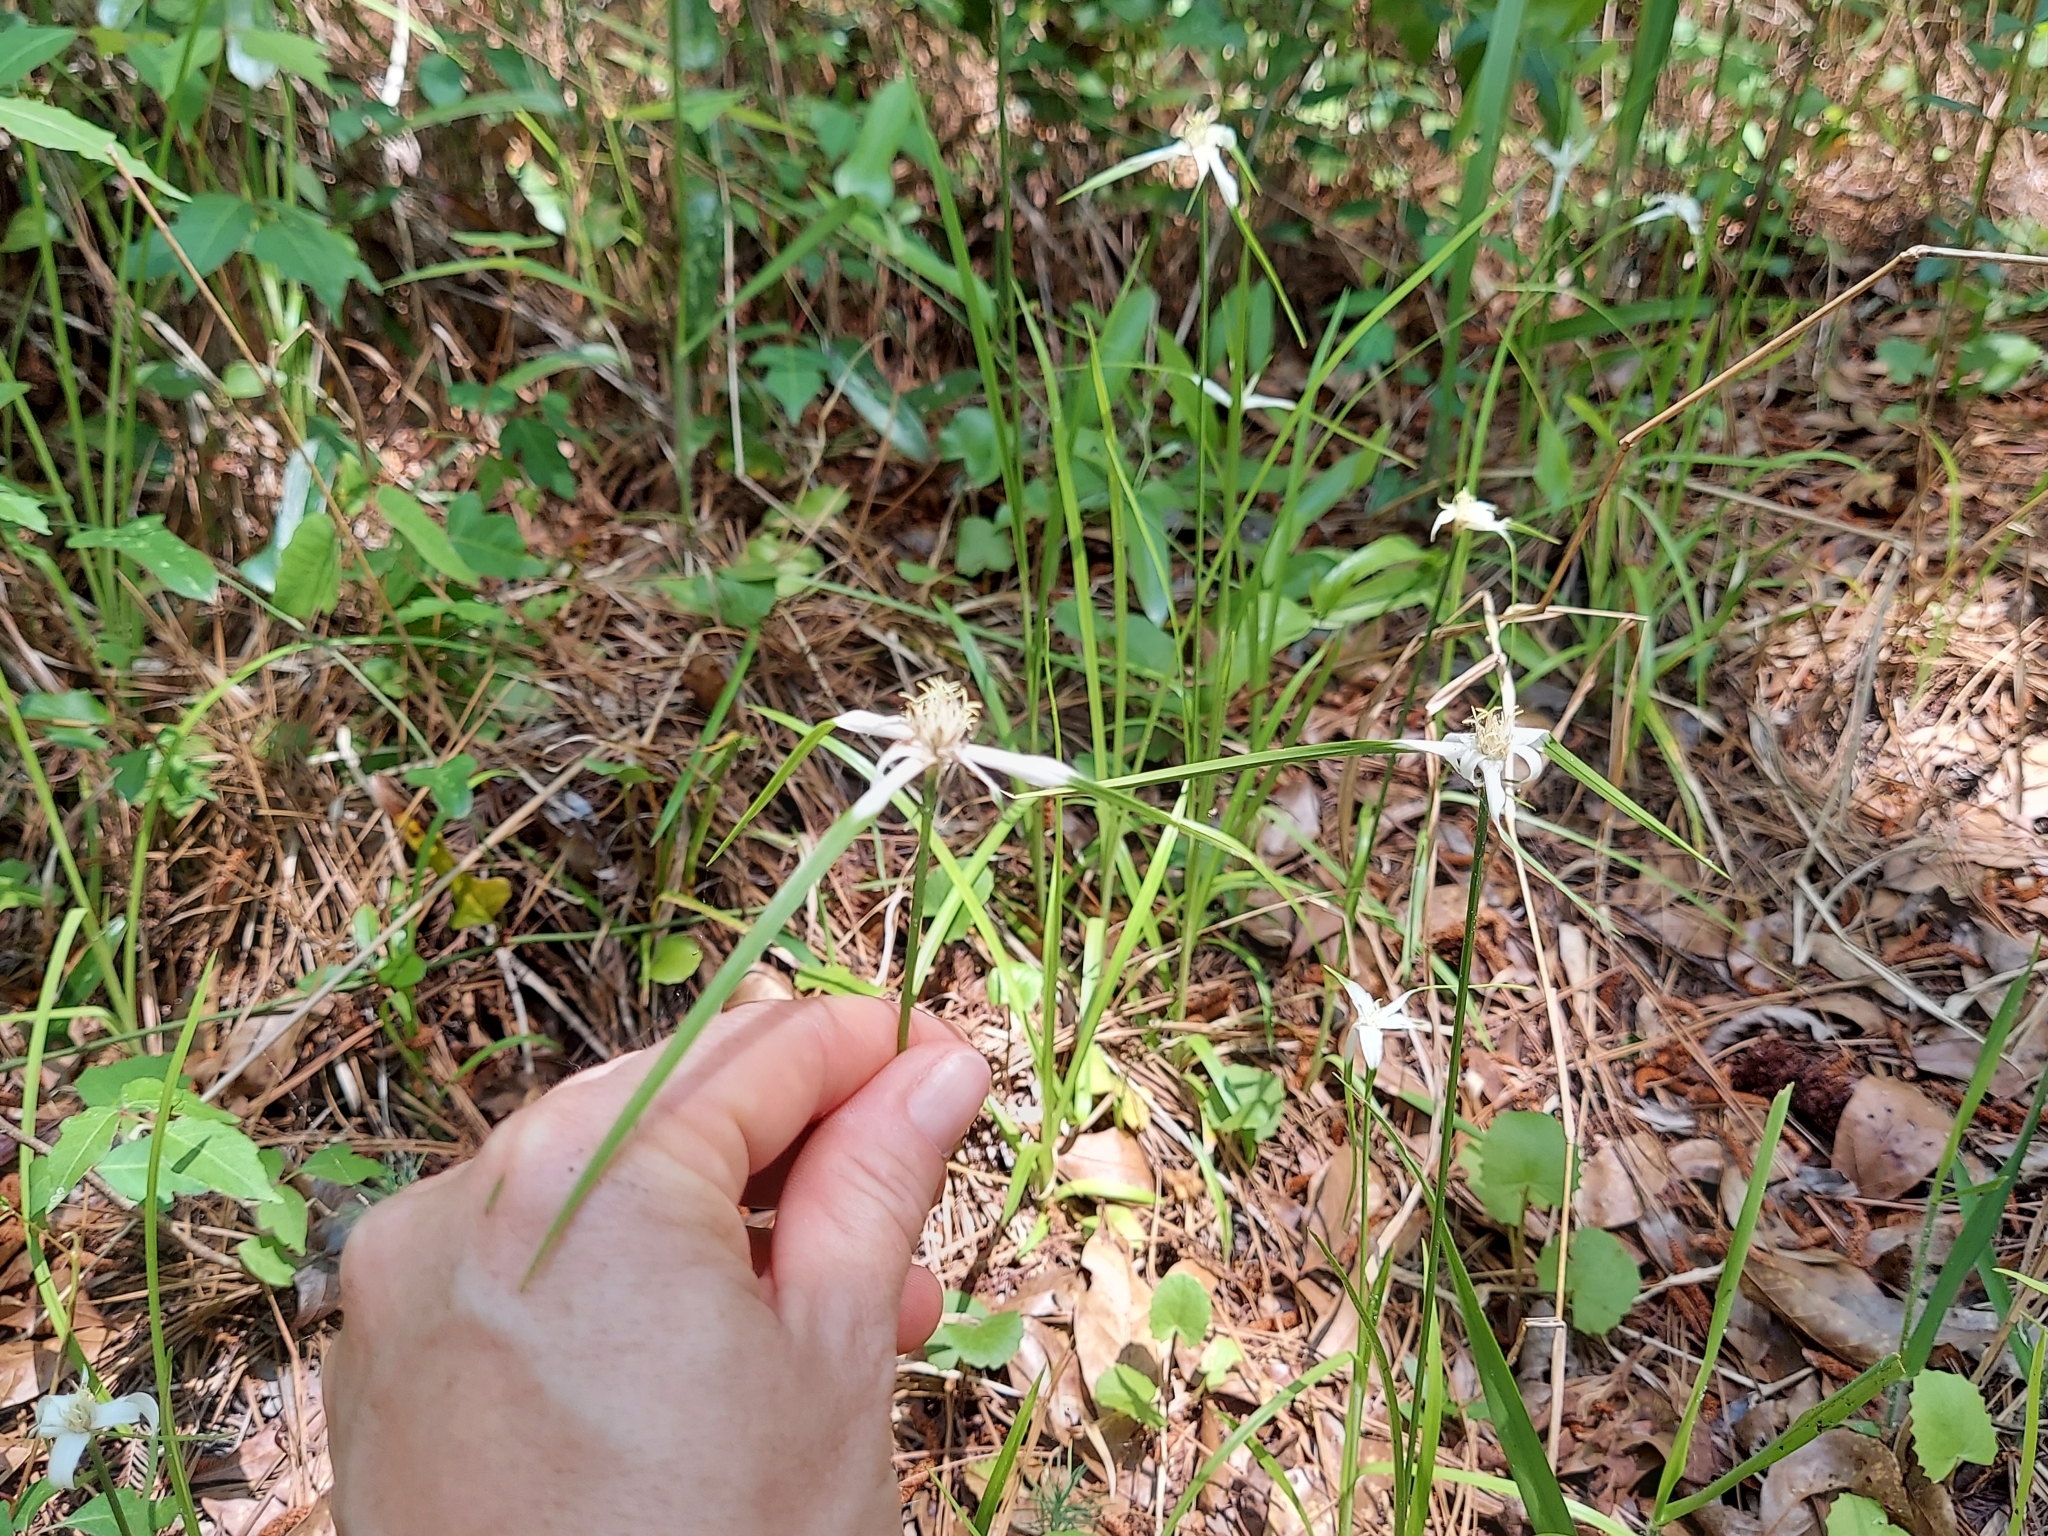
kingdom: Plantae
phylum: Tracheophyta
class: Liliopsida
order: Poales
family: Cyperaceae
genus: Rhynchospora
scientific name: Rhynchospora colorata
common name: Star sedge
